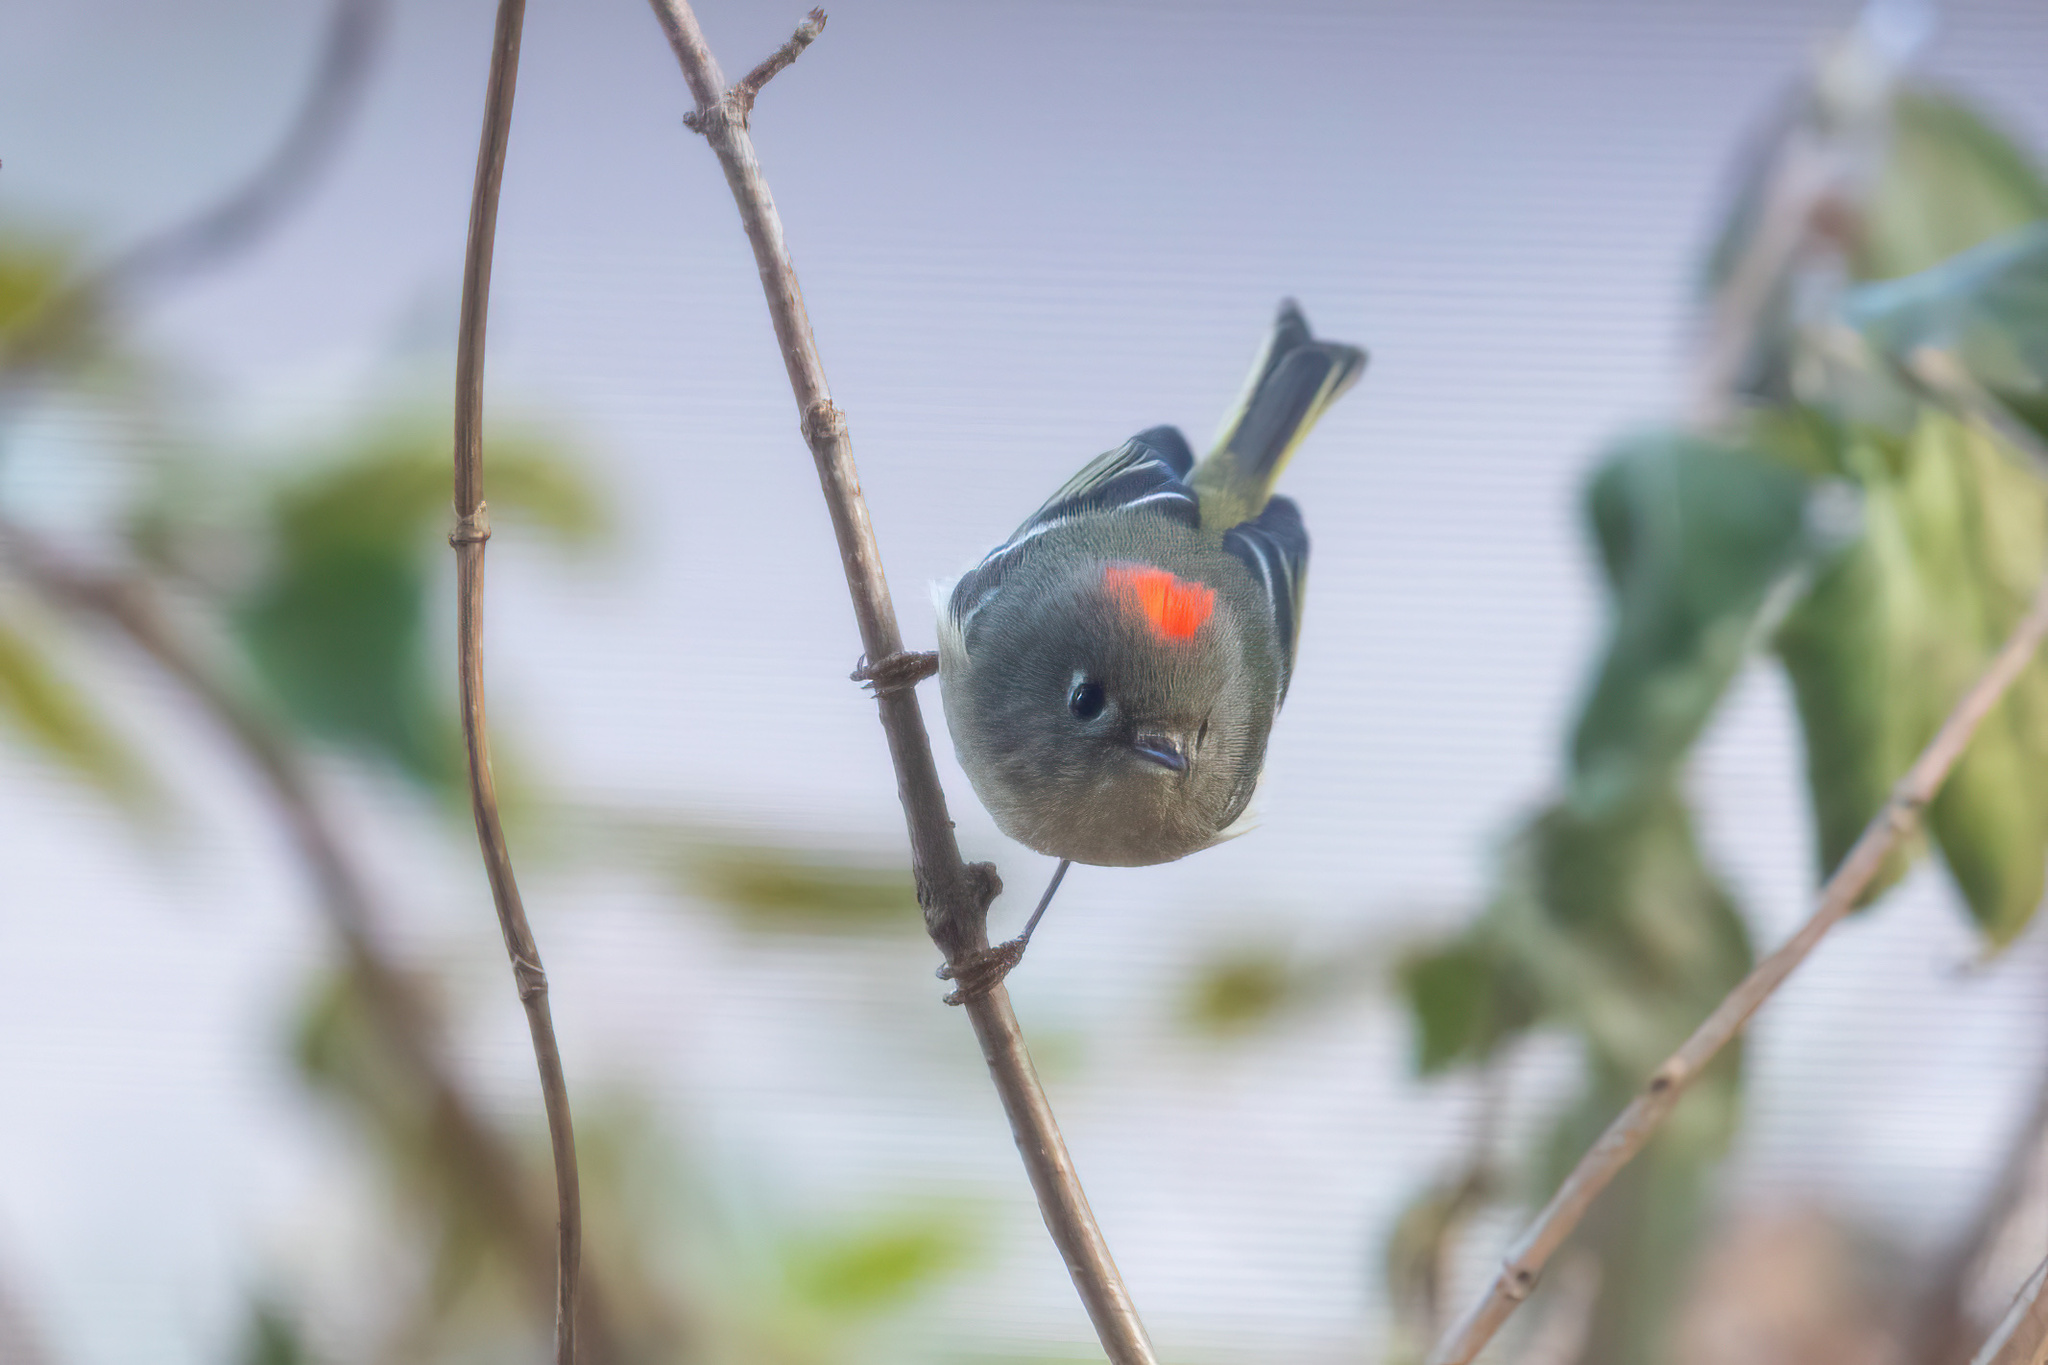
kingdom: Animalia
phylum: Chordata
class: Aves
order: Passeriformes
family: Regulidae
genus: Regulus
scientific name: Regulus calendula
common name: Ruby-crowned kinglet
